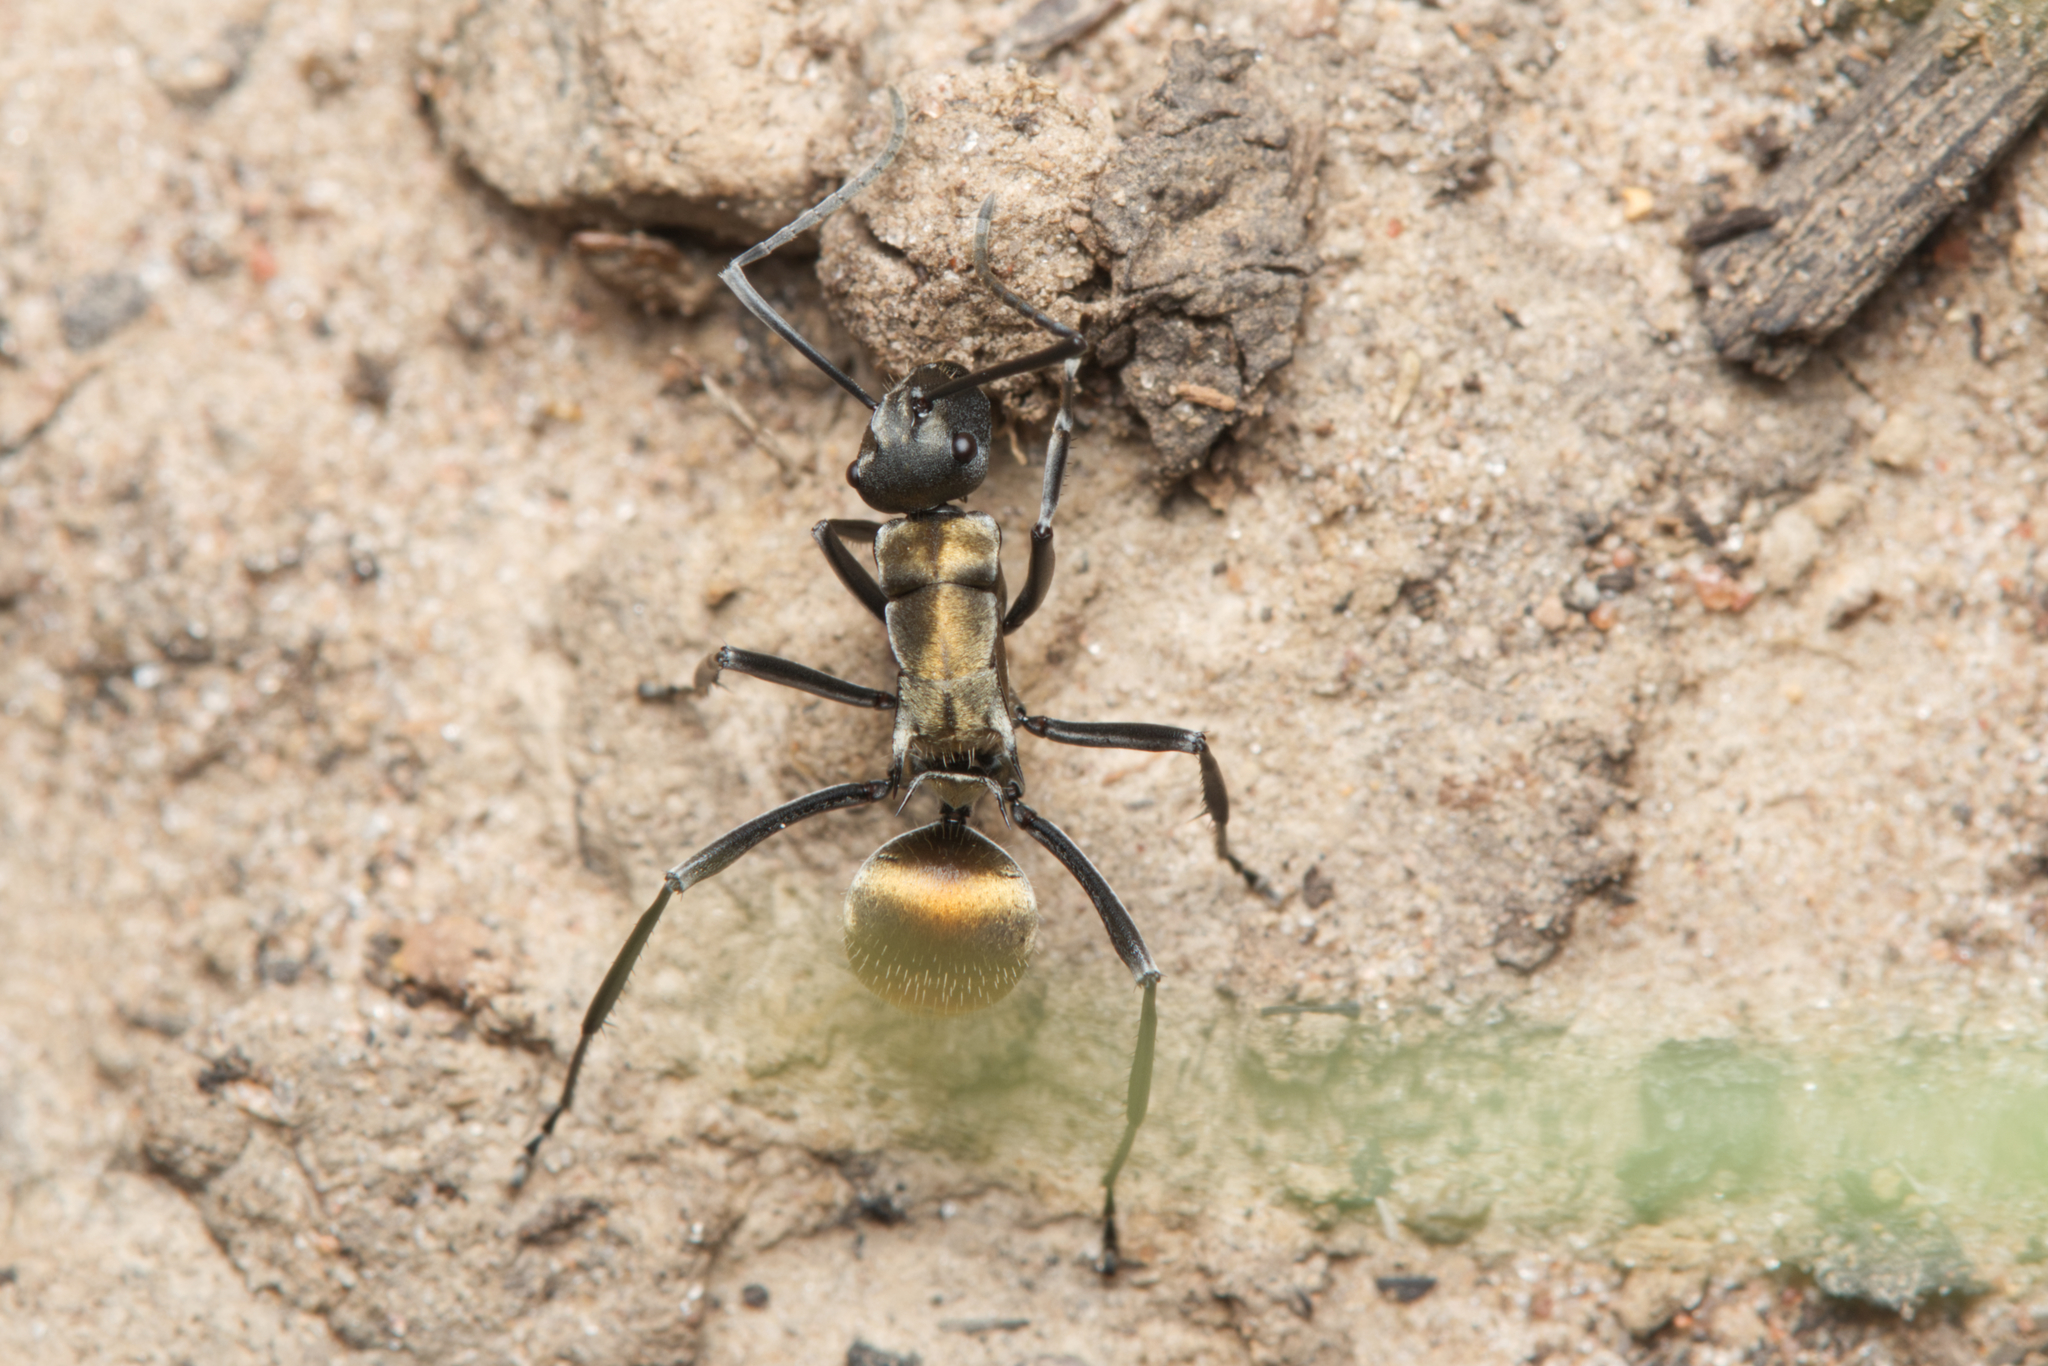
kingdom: Animalia
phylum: Arthropoda
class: Insecta
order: Hymenoptera
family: Formicidae
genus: Polyrhachis
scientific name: Polyrhachis ammon
